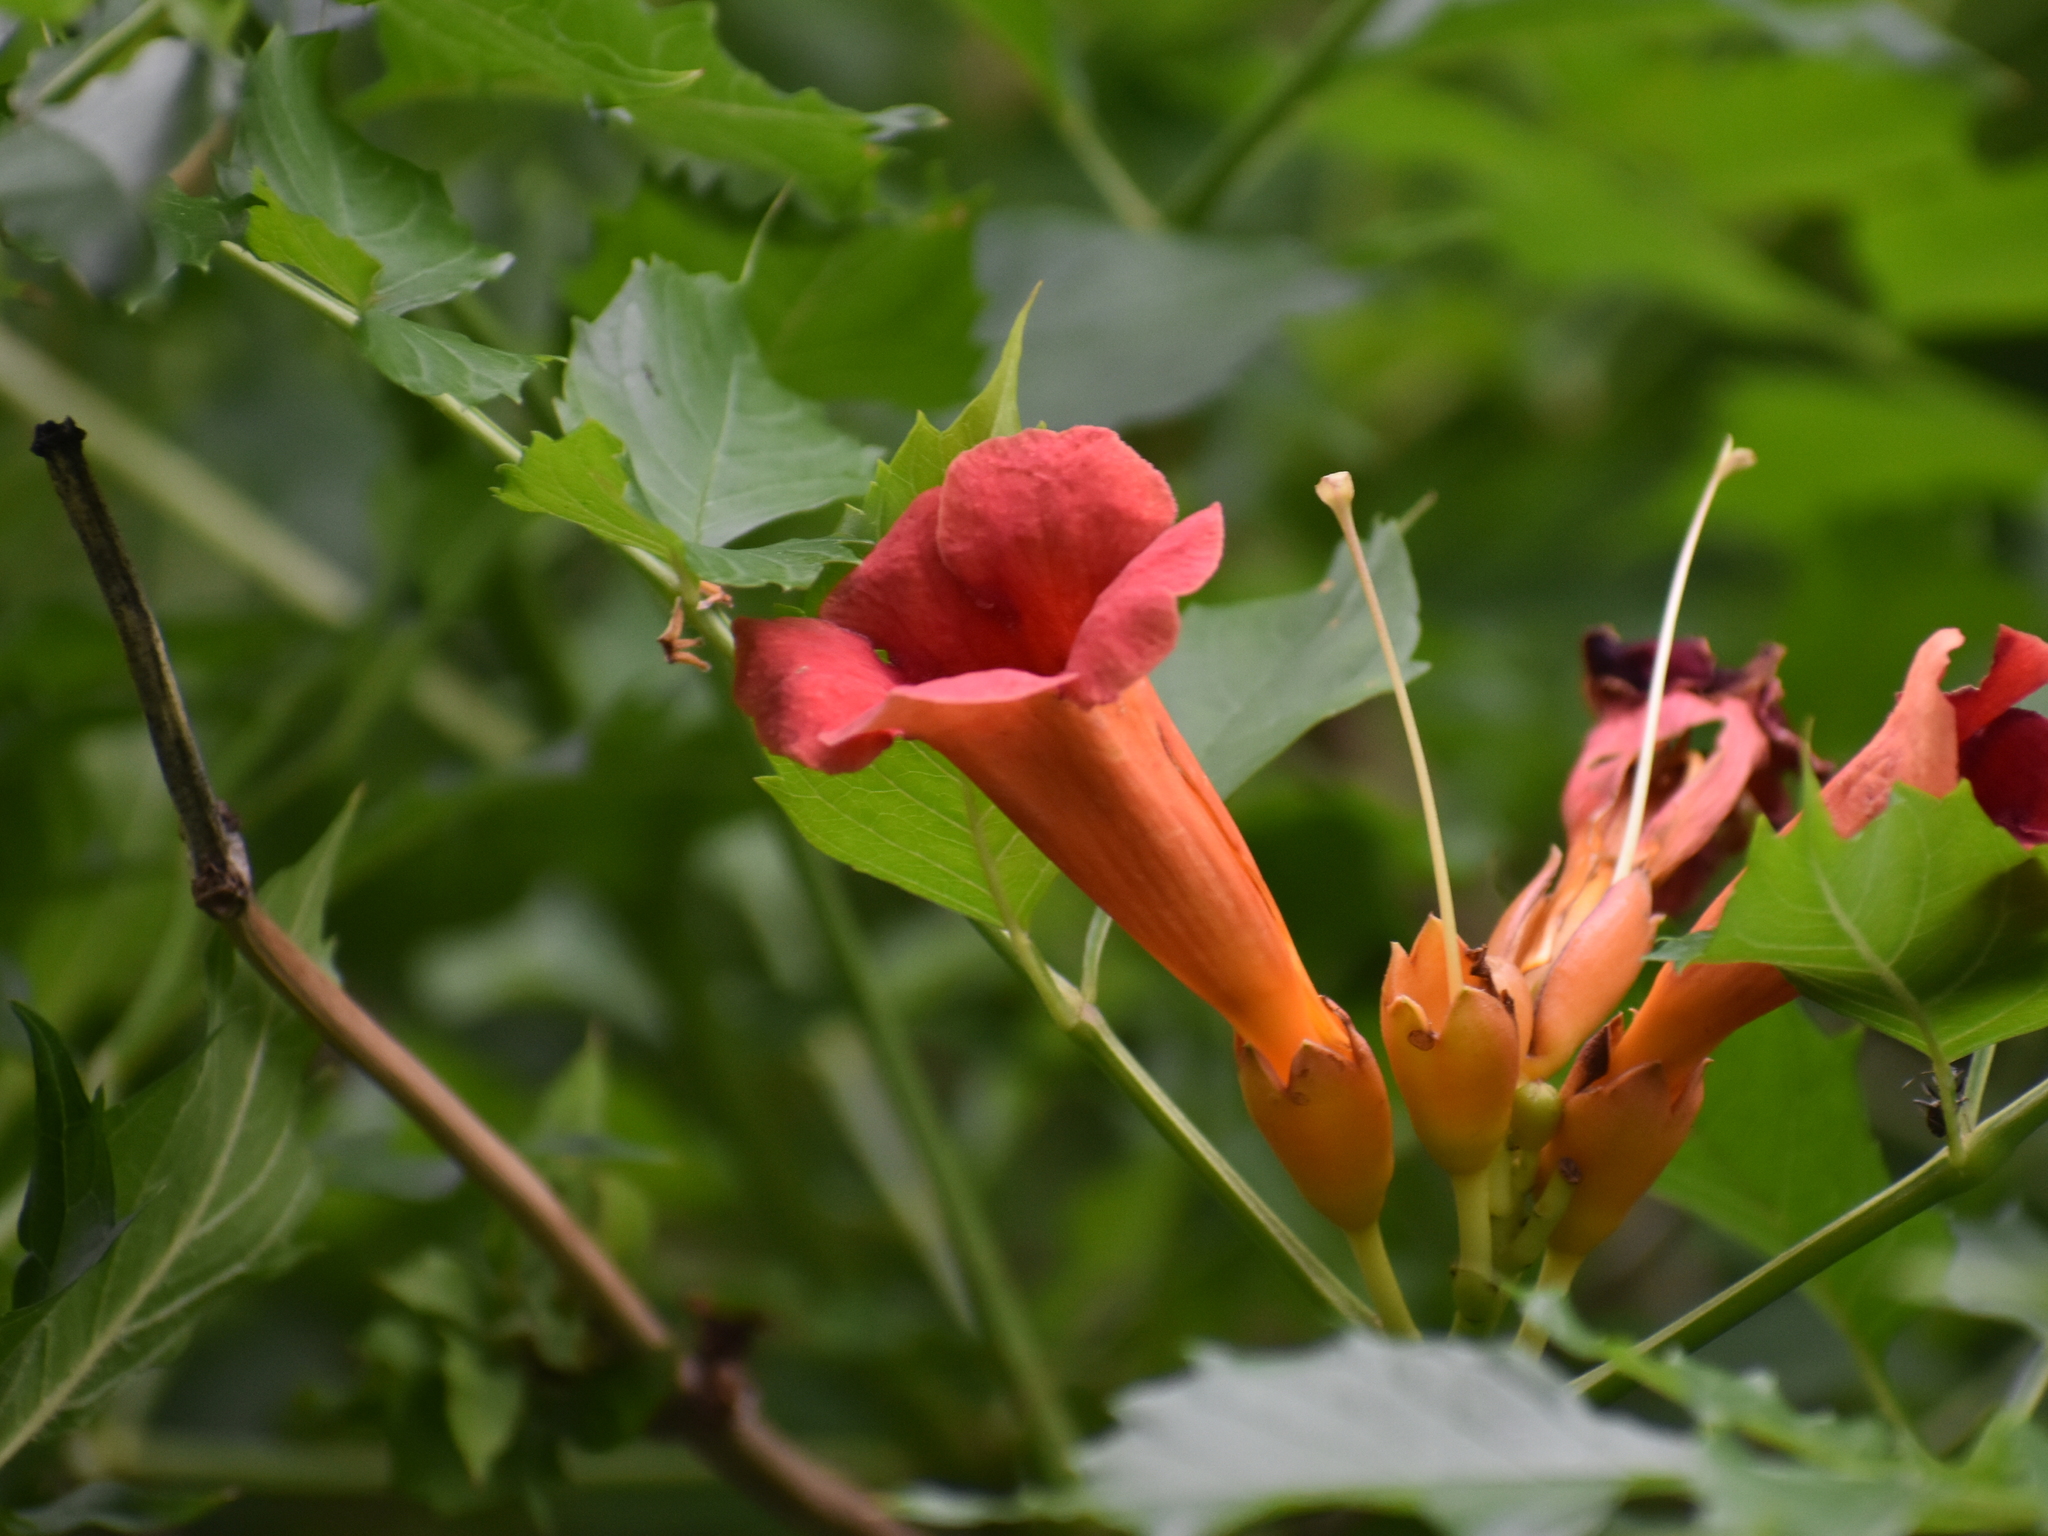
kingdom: Plantae
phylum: Tracheophyta
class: Magnoliopsida
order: Lamiales
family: Bignoniaceae
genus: Campsis
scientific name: Campsis radicans
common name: Trumpet-creeper
